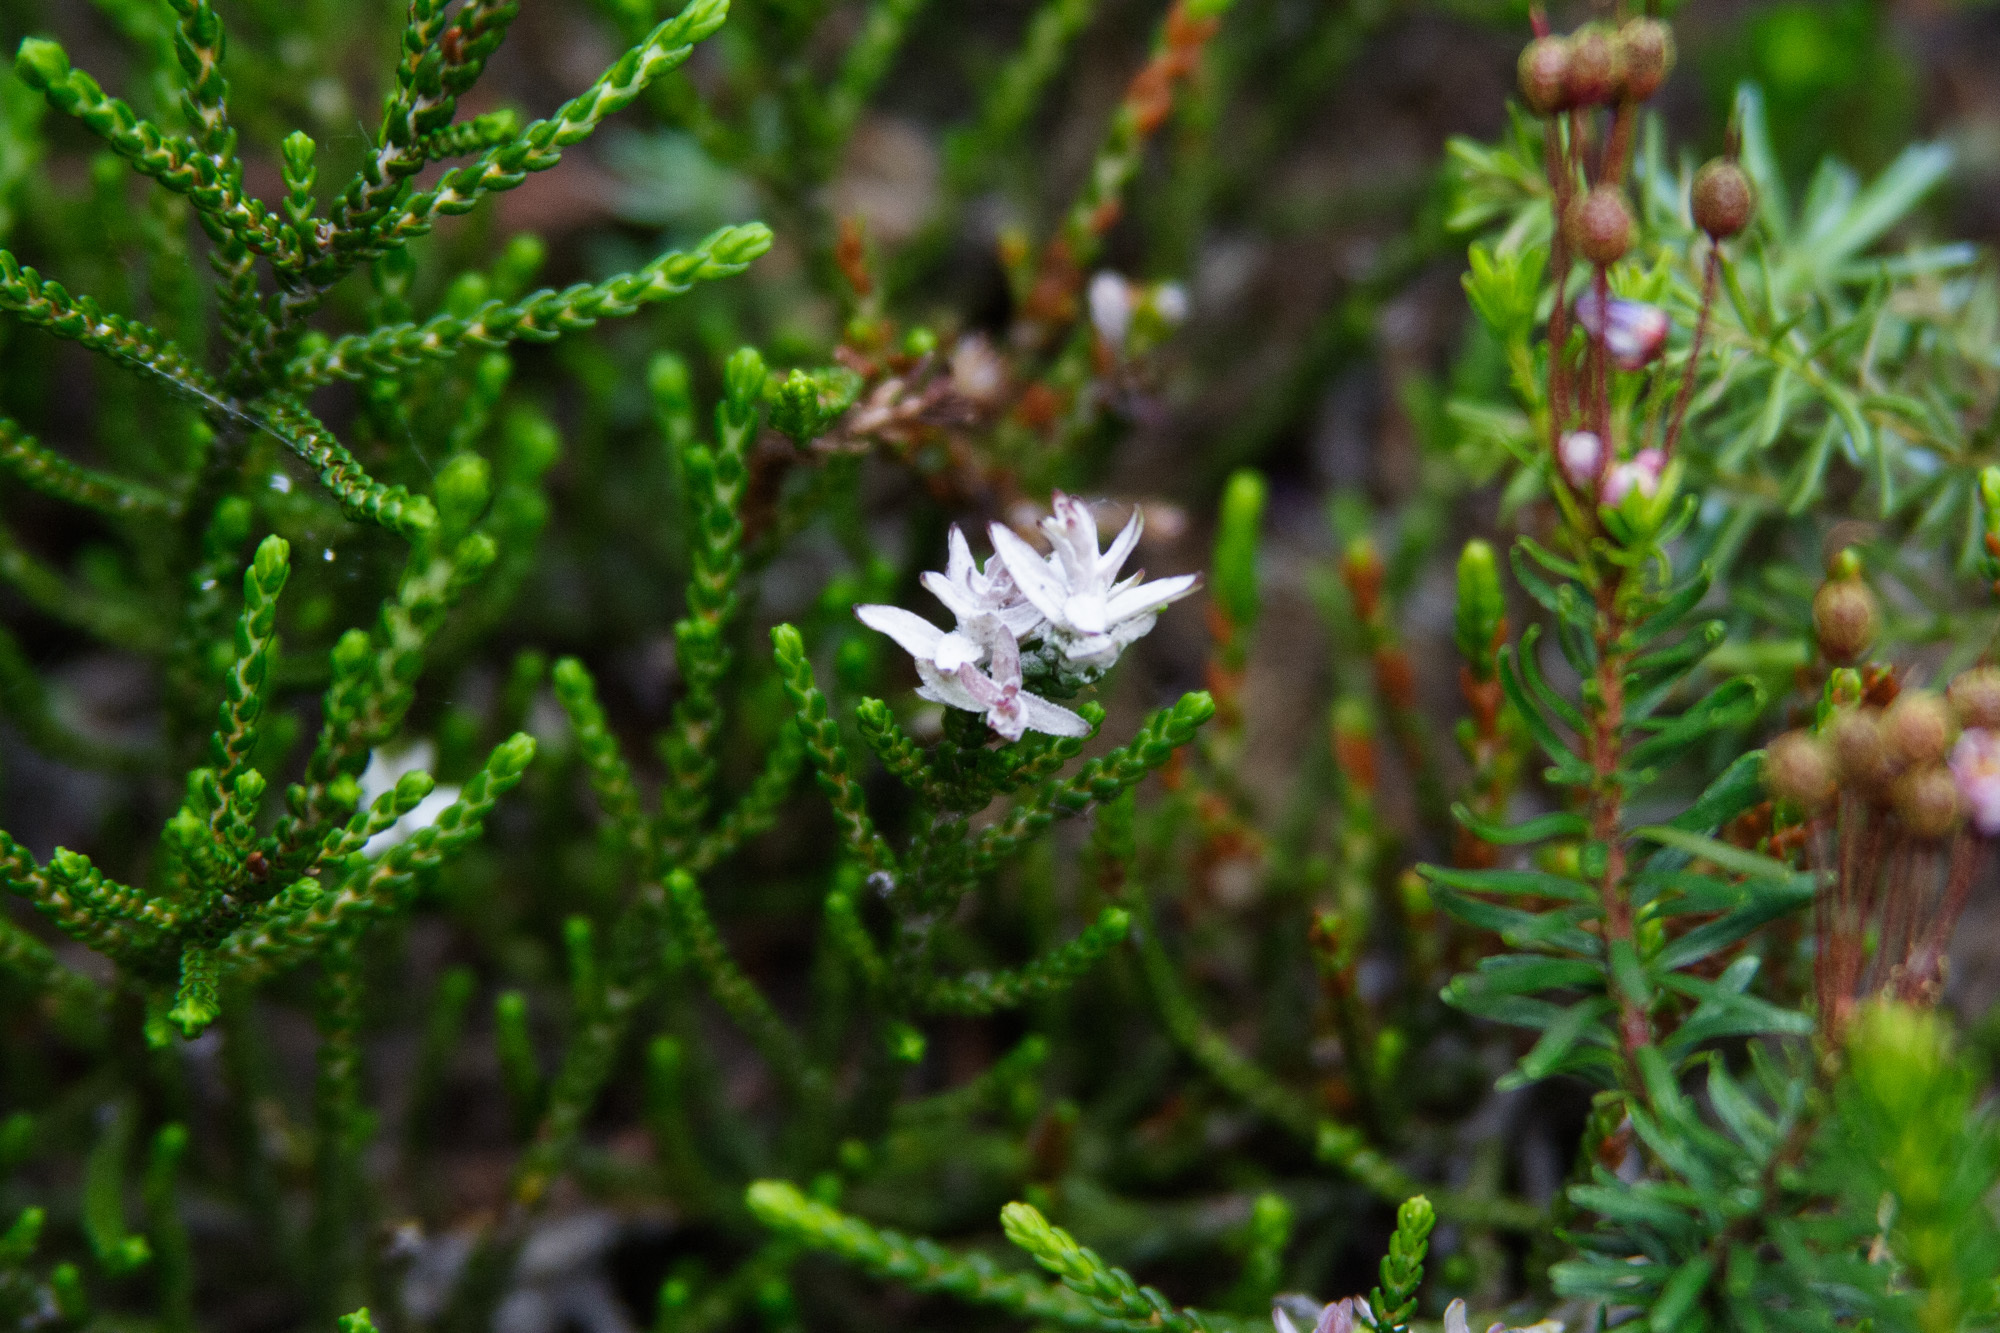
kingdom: Plantae
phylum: Tracheophyta
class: Magnoliopsida
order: Ericales
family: Ericaceae
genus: Cassiope
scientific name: Cassiope mertensiana
